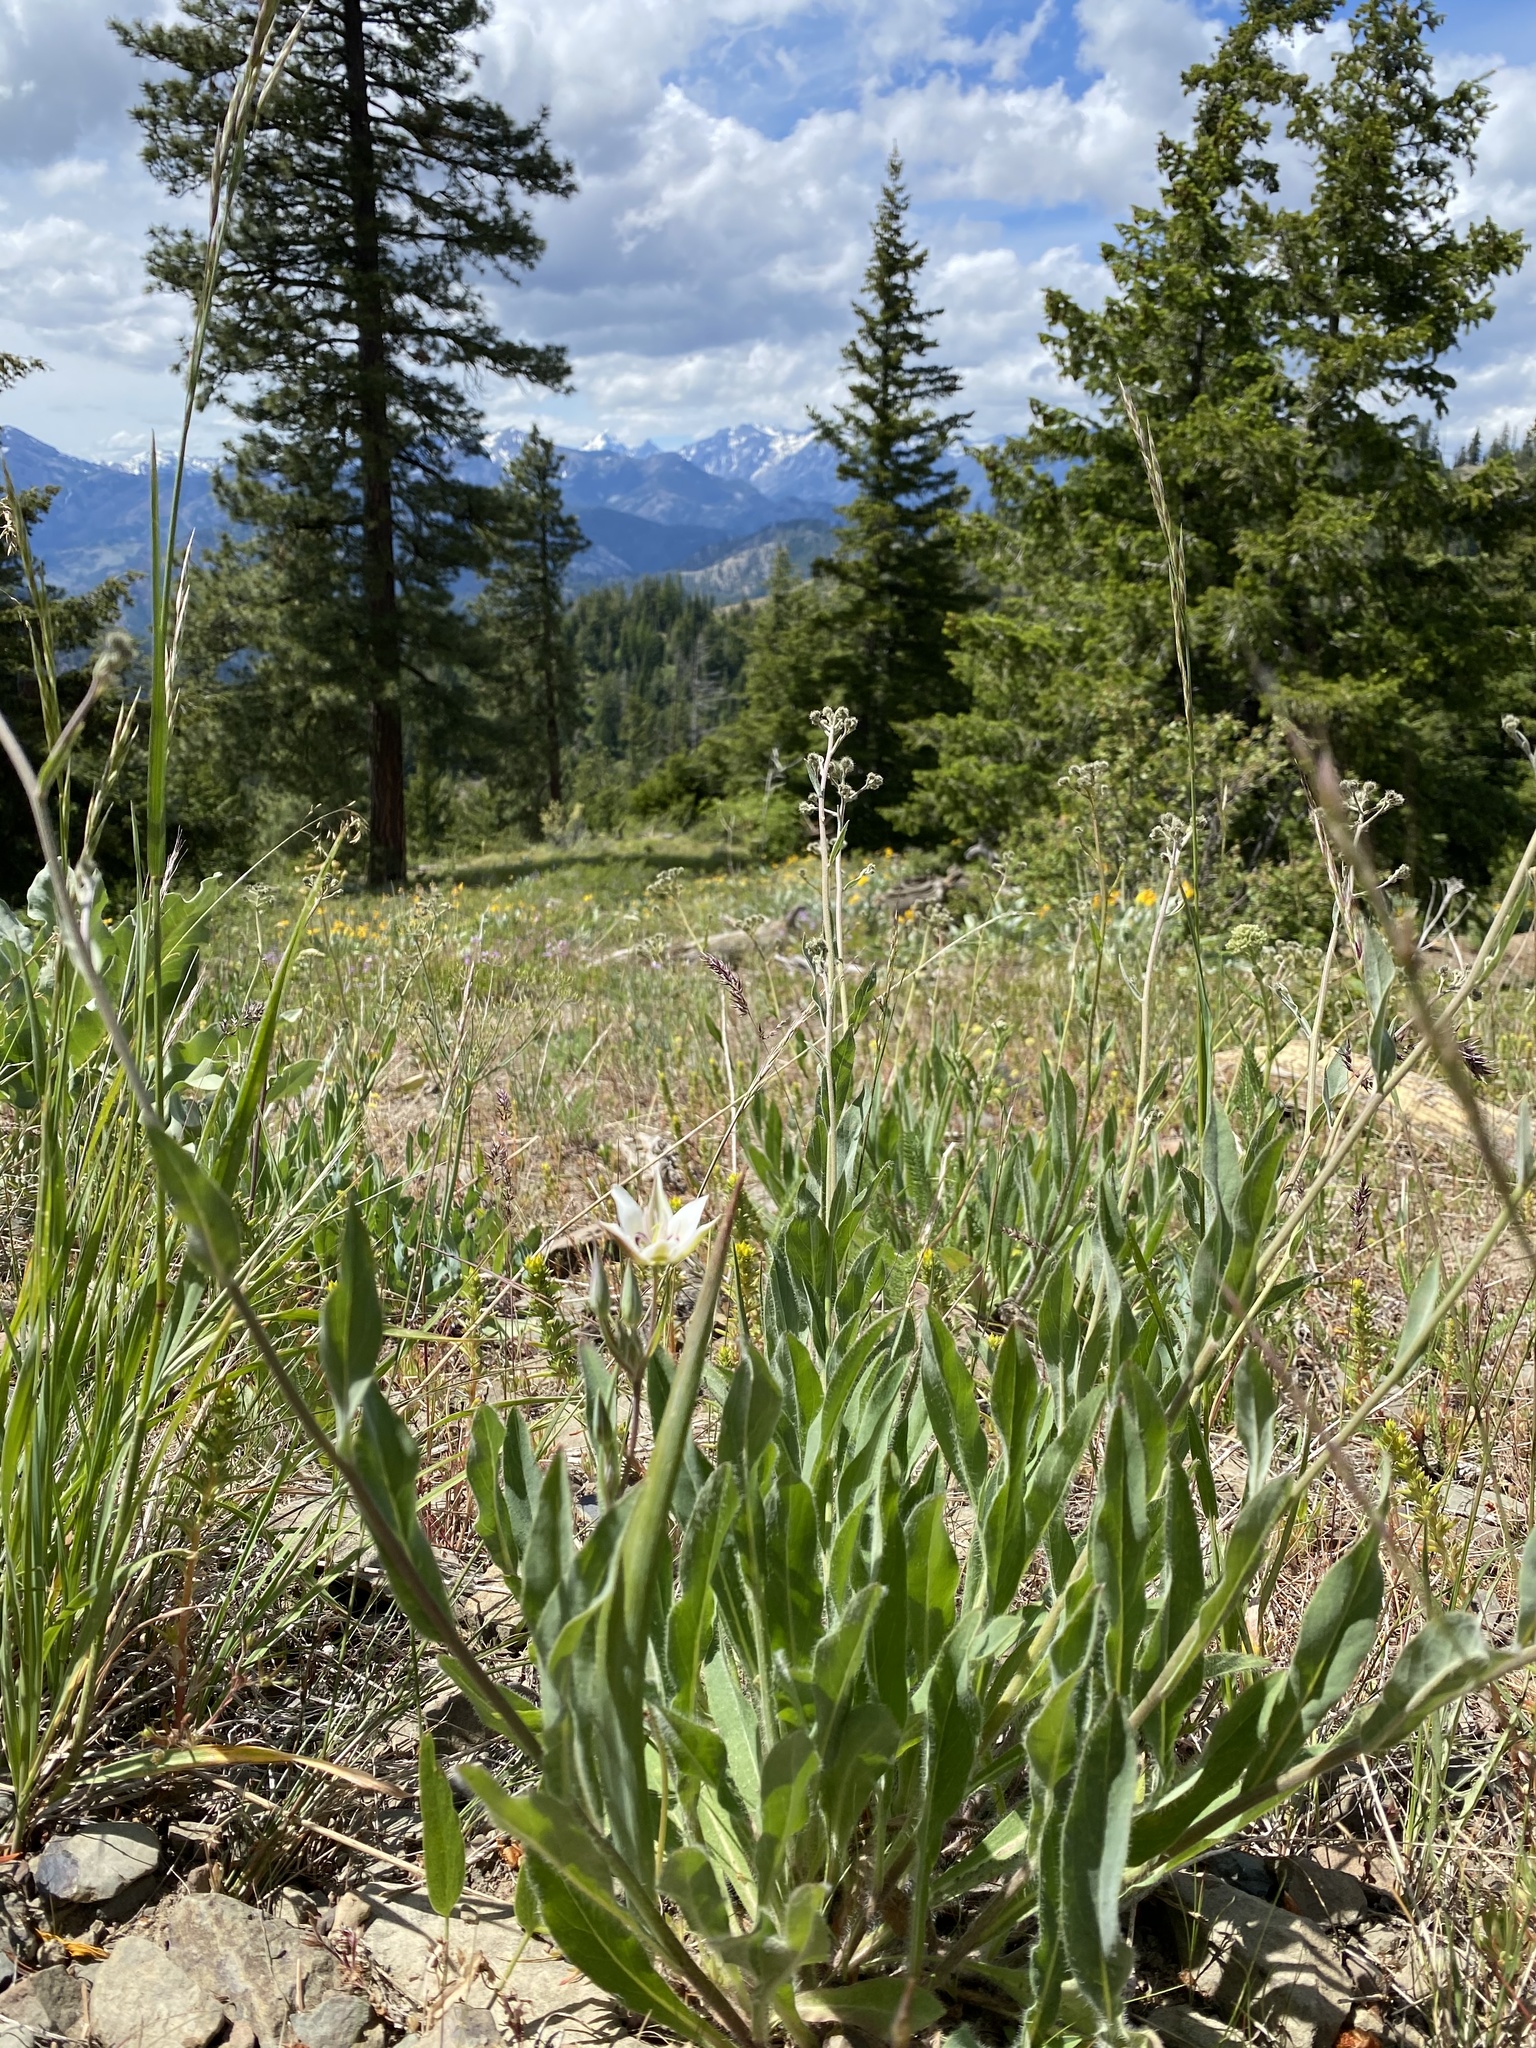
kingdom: Plantae
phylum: Tracheophyta
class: Liliopsida
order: Liliales
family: Liliaceae
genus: Calochortus
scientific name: Calochortus lyallii
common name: Lyall's mariposa lily
